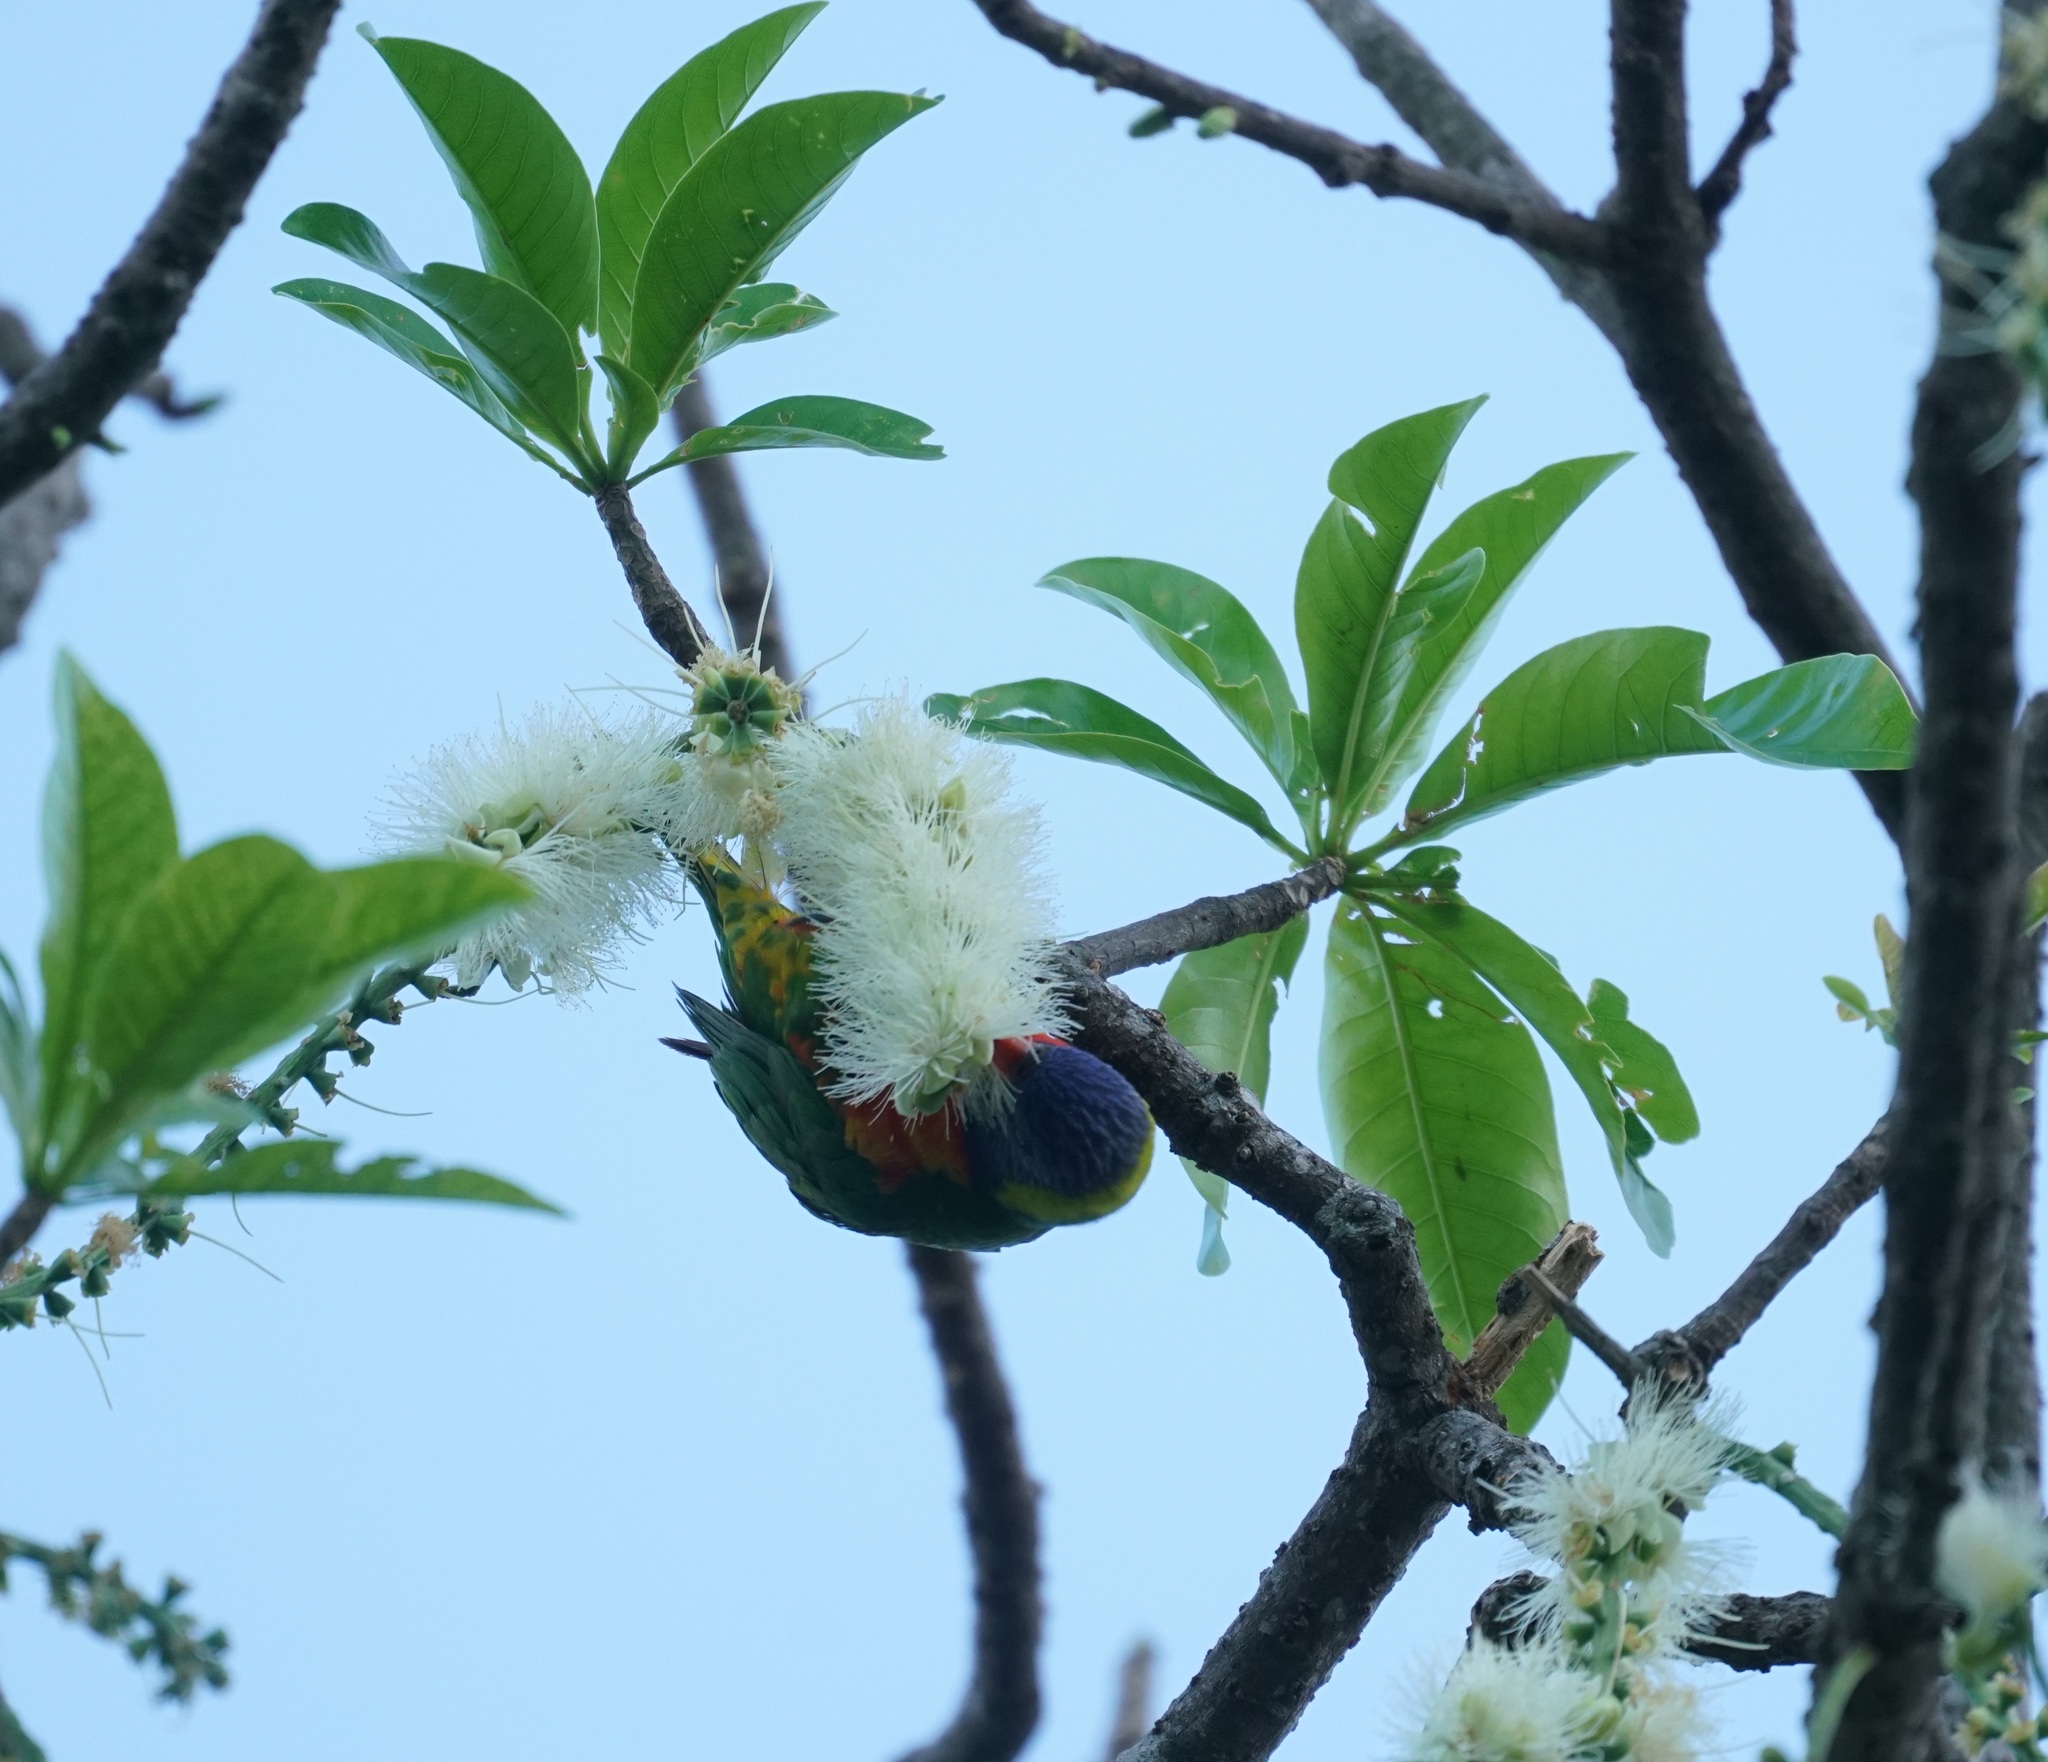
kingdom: Animalia
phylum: Chordata
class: Aves
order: Psittaciformes
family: Psittacidae
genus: Trichoglossus
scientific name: Trichoglossus haematodus
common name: Coconut lorikeet
